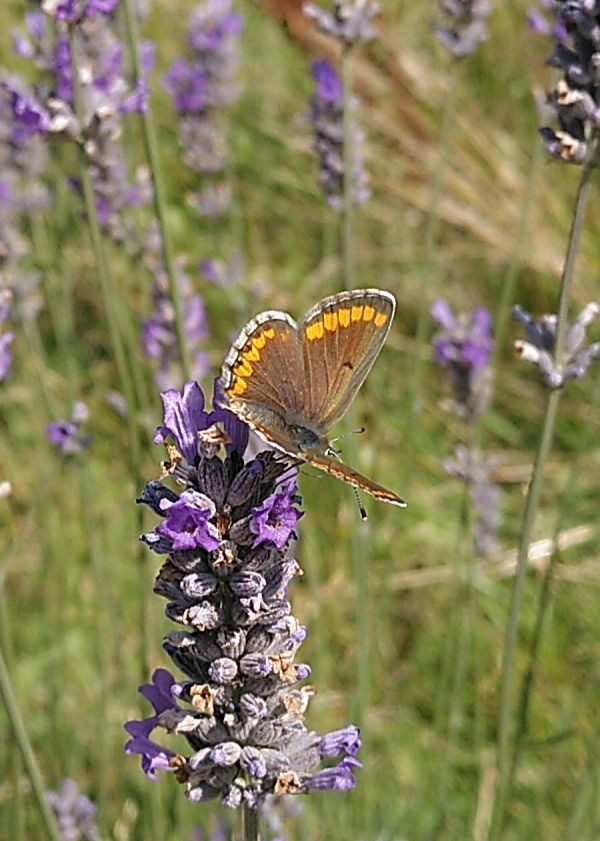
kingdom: Animalia
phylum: Arthropoda
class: Insecta
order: Lepidoptera
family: Lycaenidae
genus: Aricia
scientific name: Aricia agestis
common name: Brown argus
